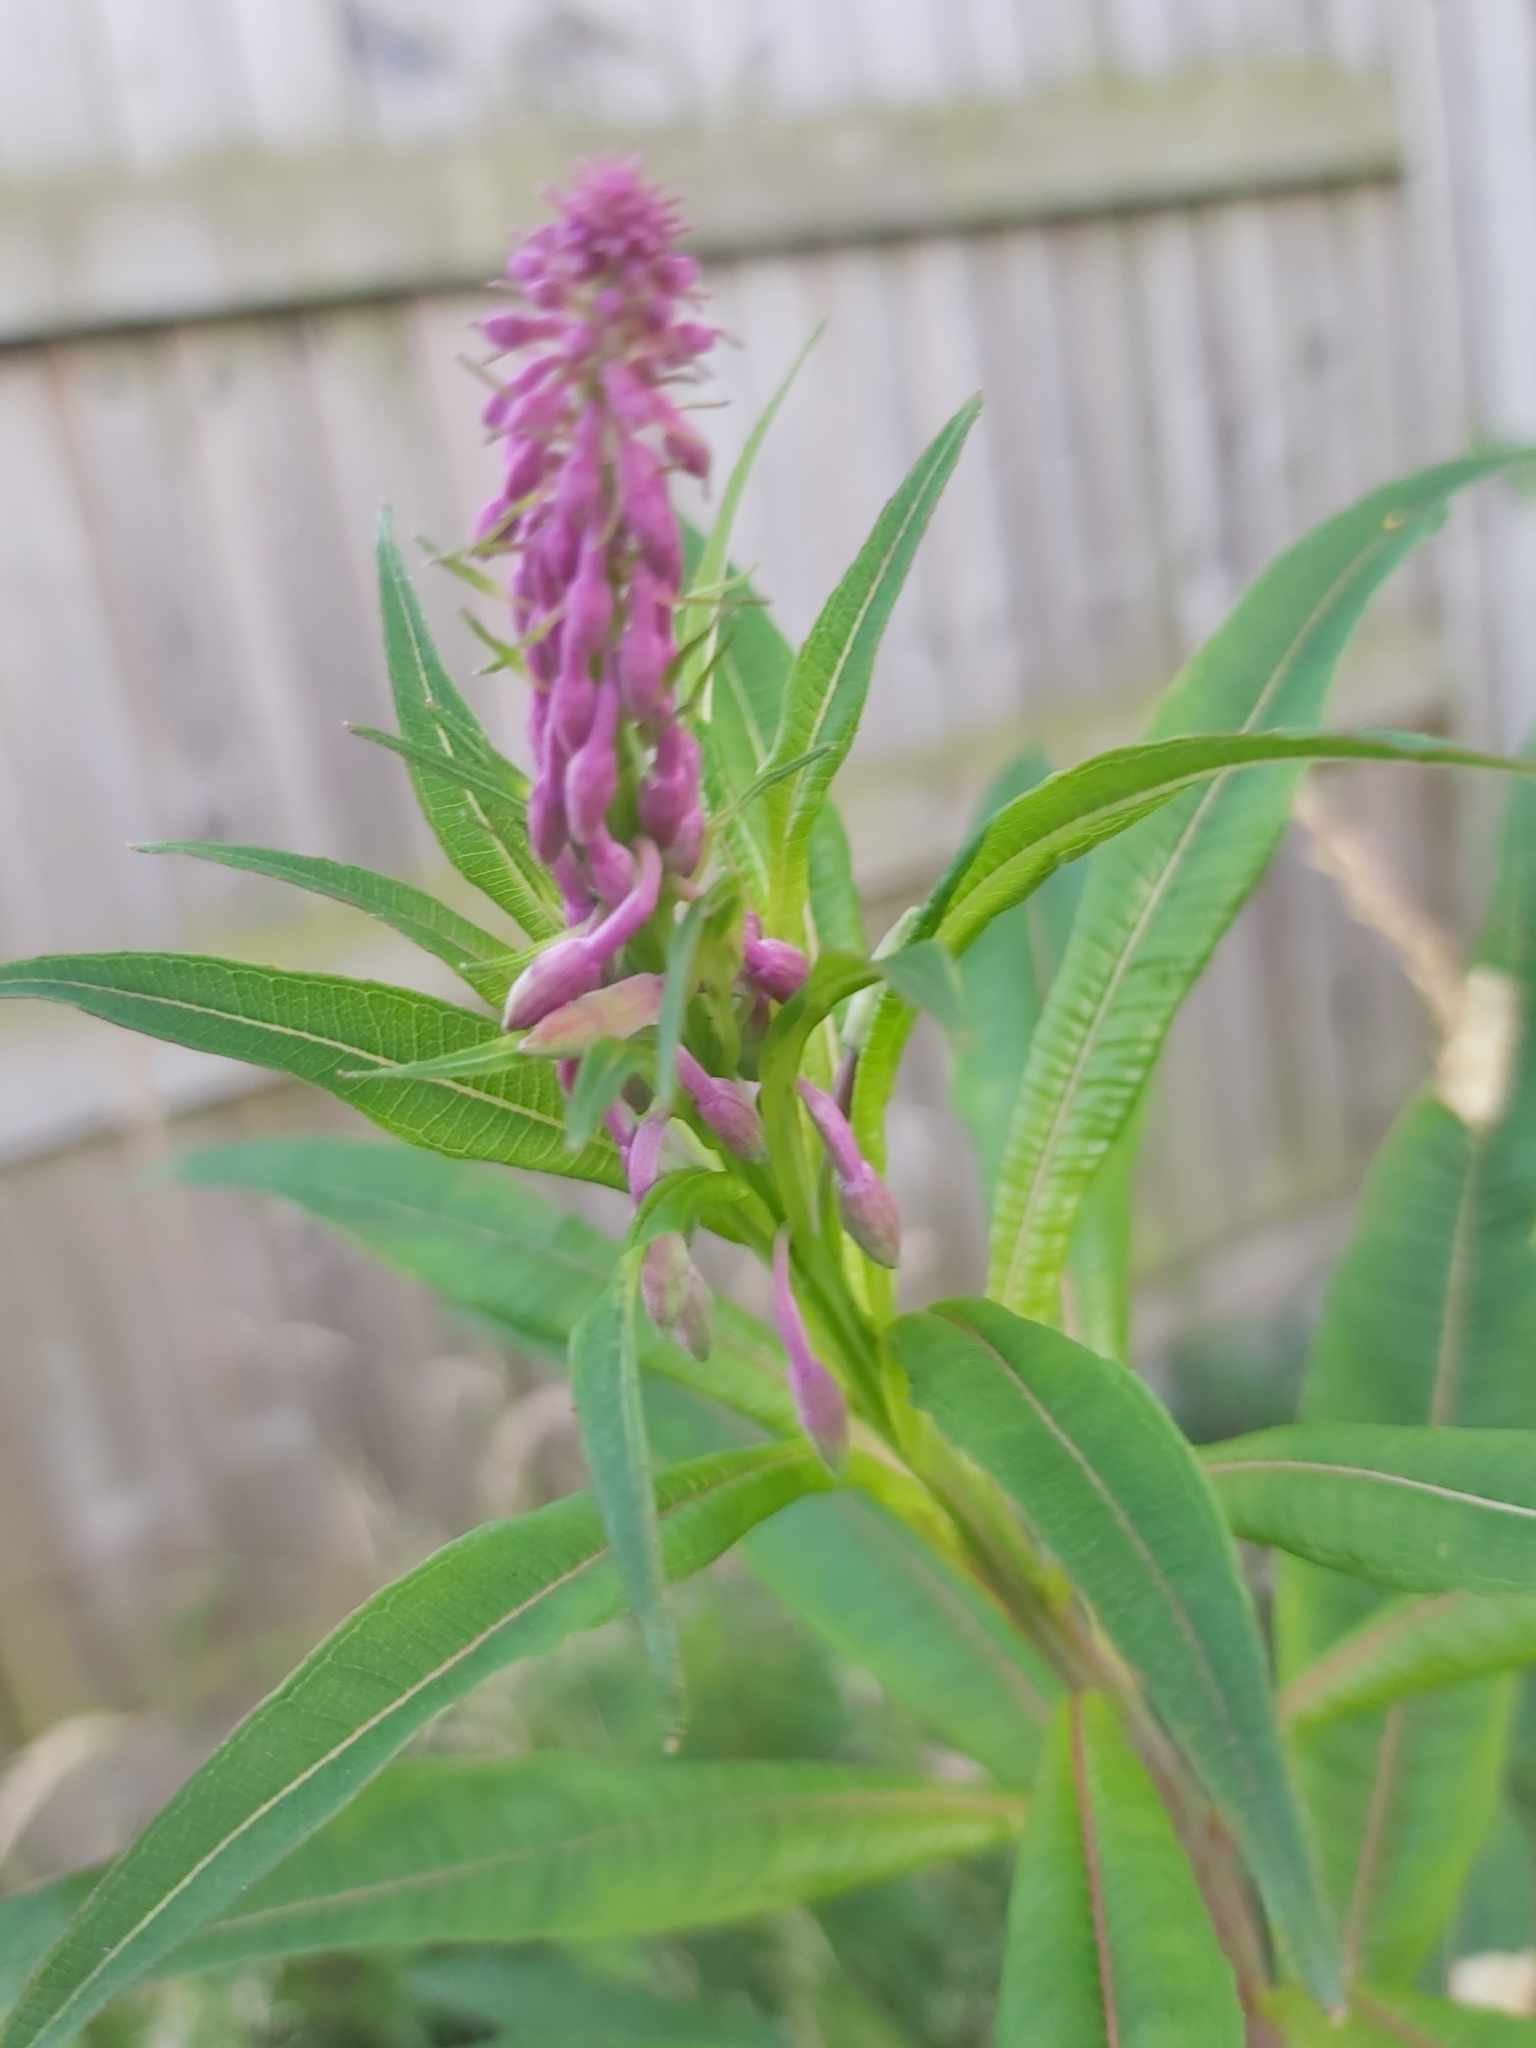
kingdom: Plantae
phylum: Tracheophyta
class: Magnoliopsida
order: Myrtales
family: Onagraceae
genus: Chamaenerion
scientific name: Chamaenerion angustifolium
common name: Fireweed
